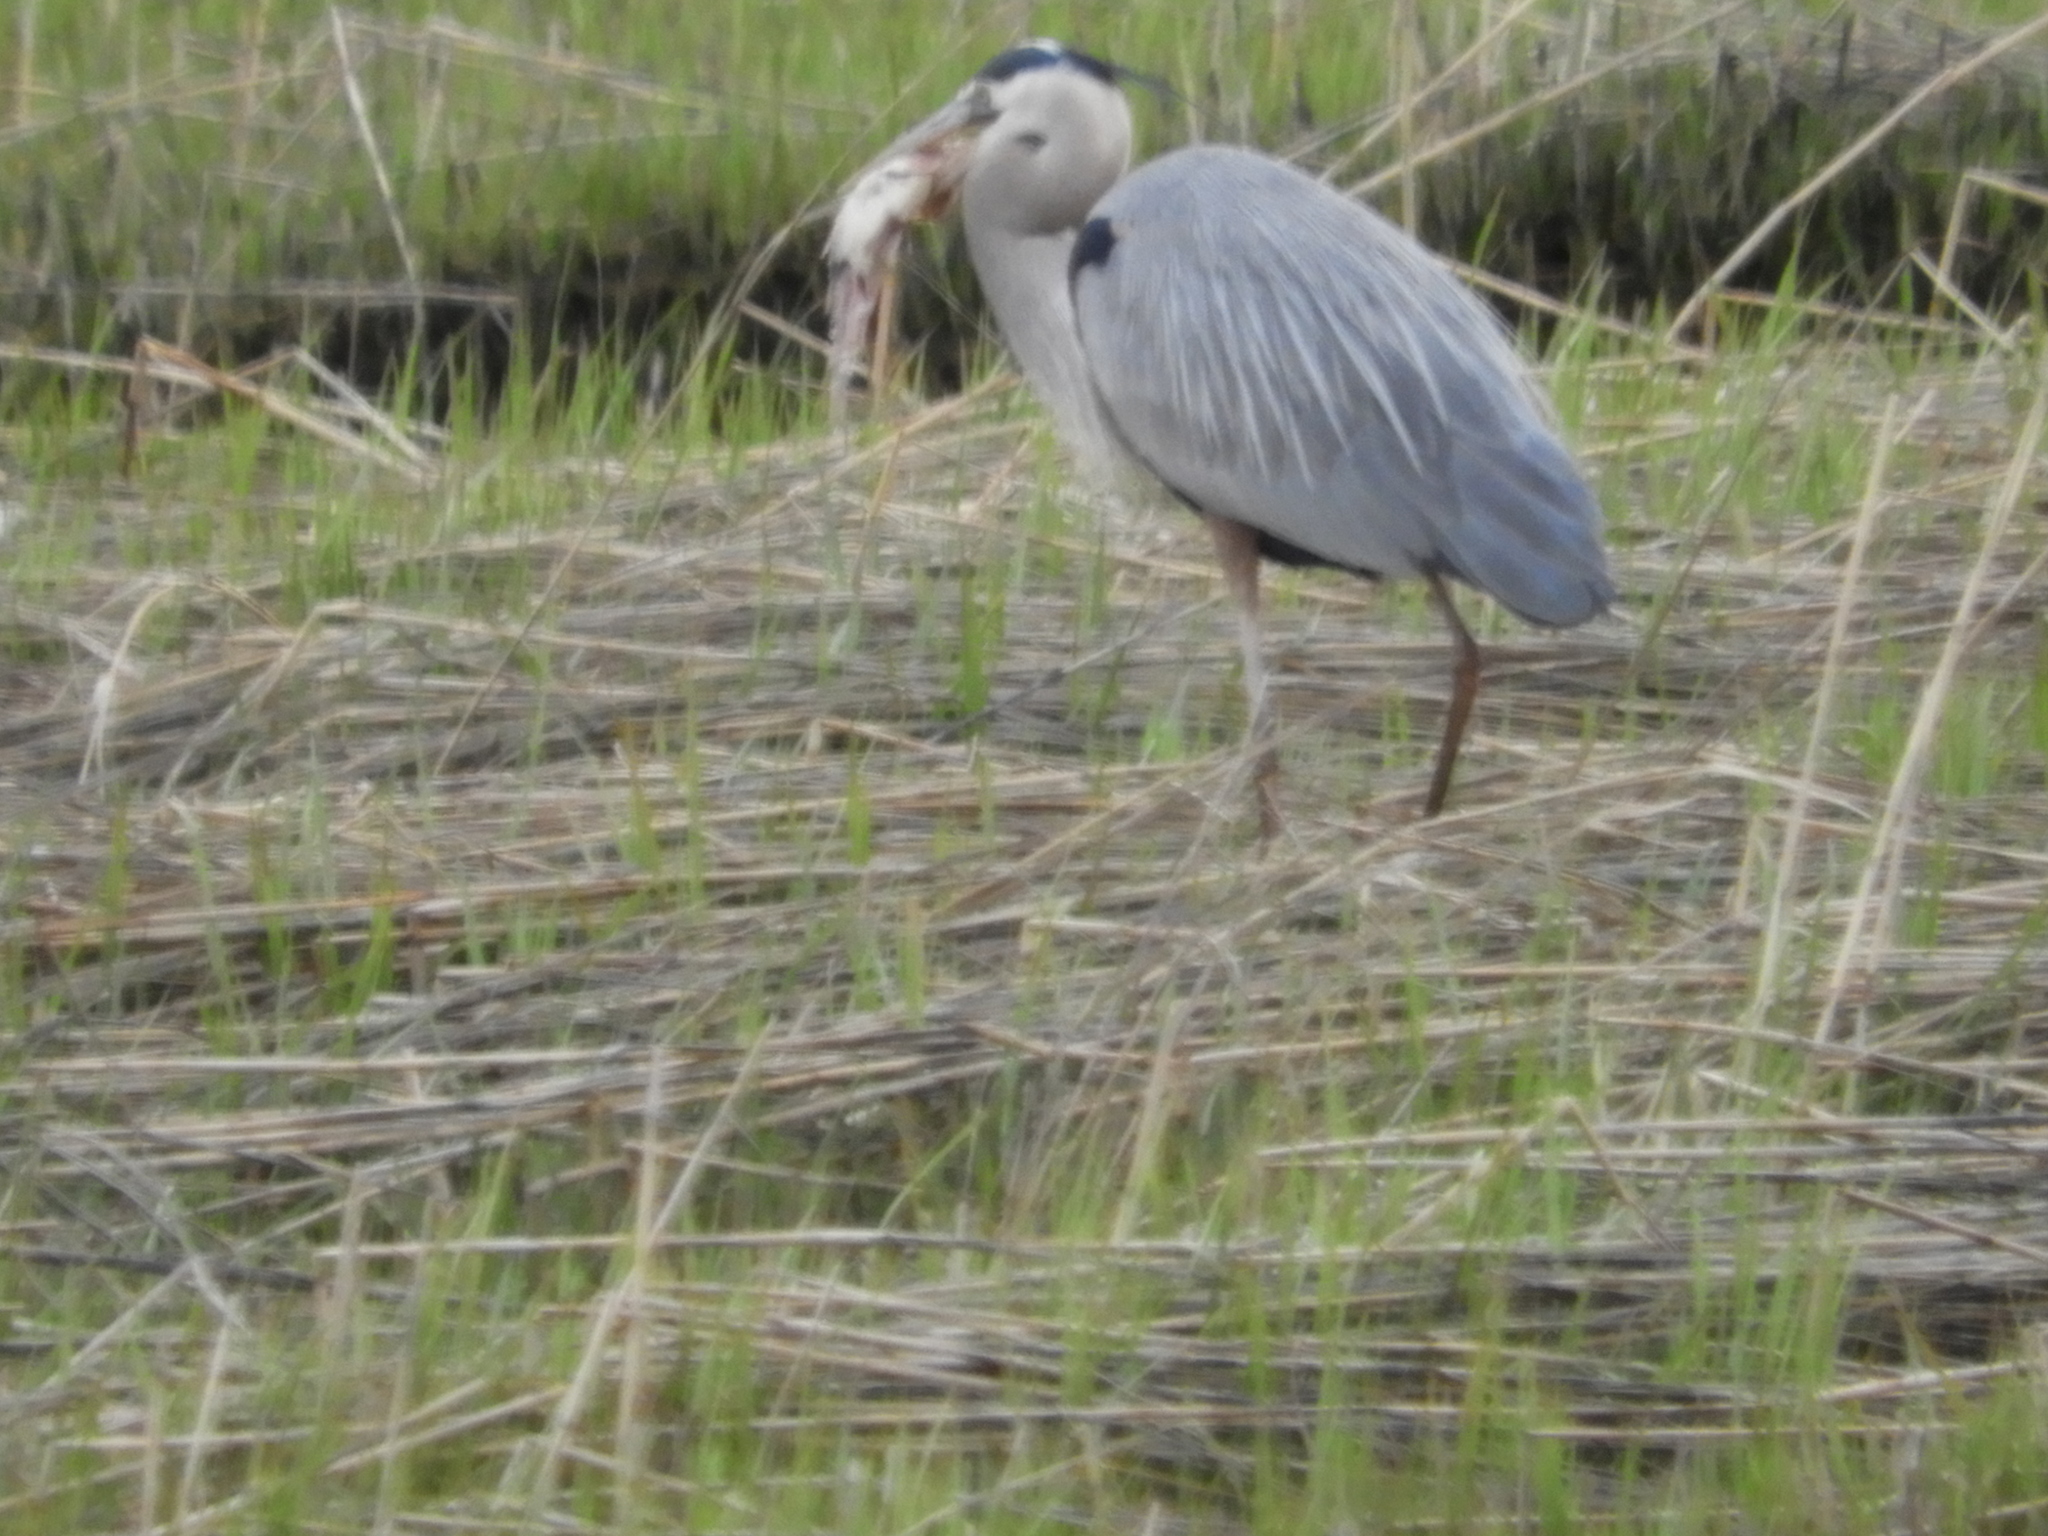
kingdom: Animalia
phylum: Chordata
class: Aves
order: Pelecaniformes
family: Ardeidae
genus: Ardea
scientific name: Ardea herodias
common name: Great blue heron
